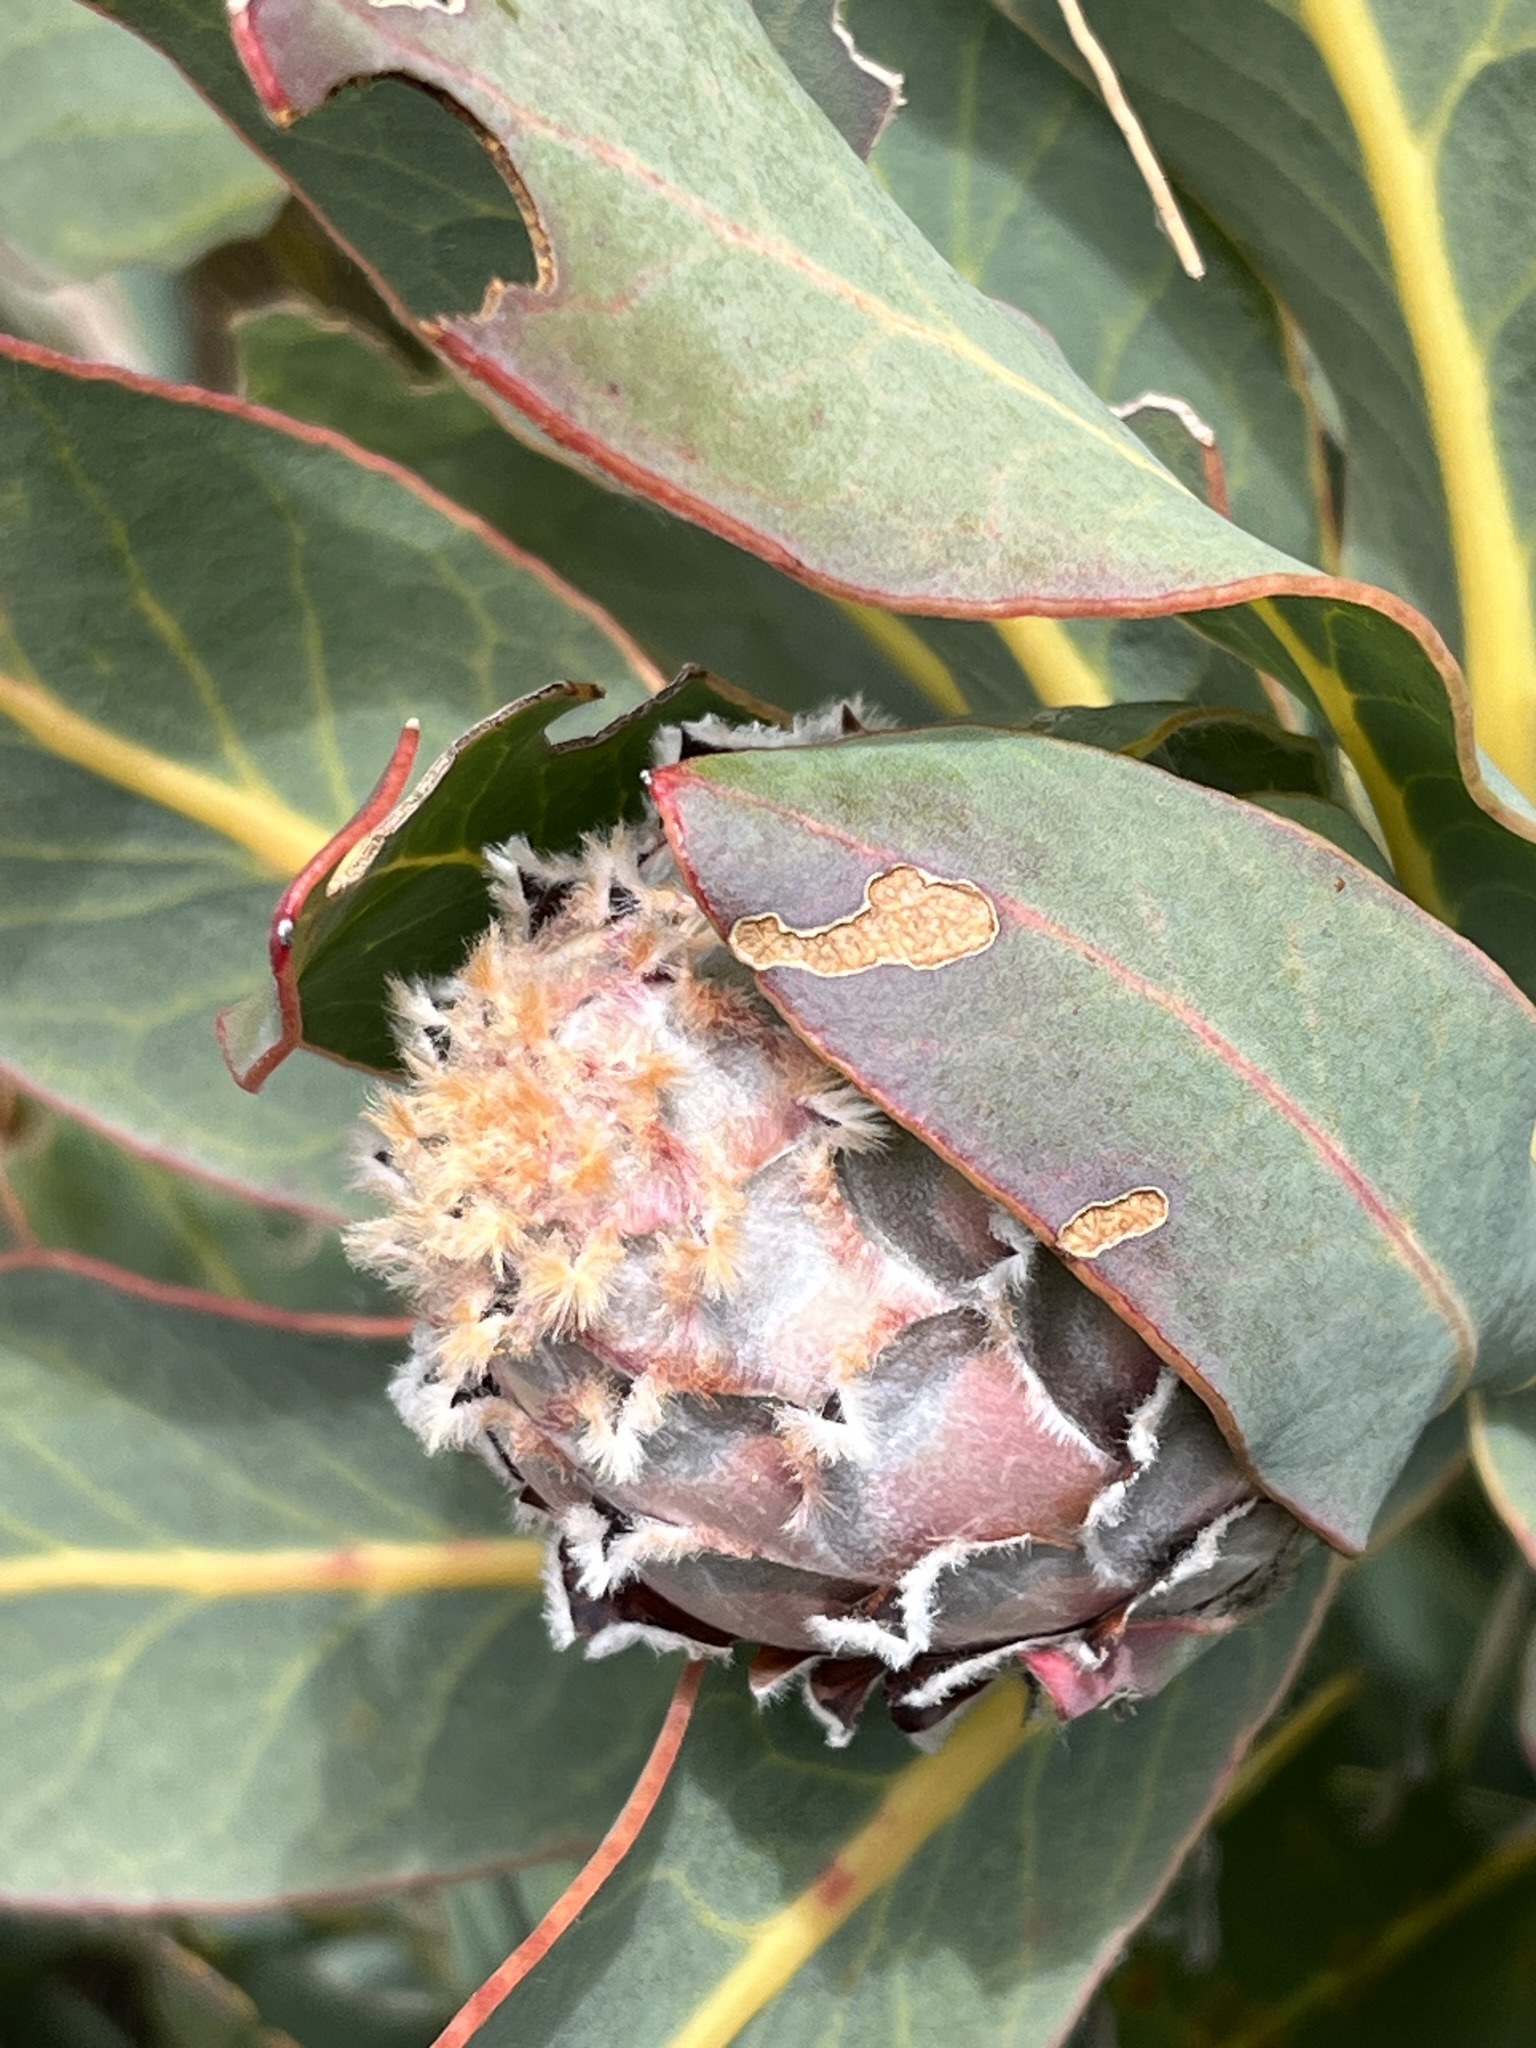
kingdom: Plantae
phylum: Tracheophyta
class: Magnoliopsida
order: Proteales
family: Proteaceae
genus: Protea
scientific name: Protea magnifica
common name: Bearded sugarbush
